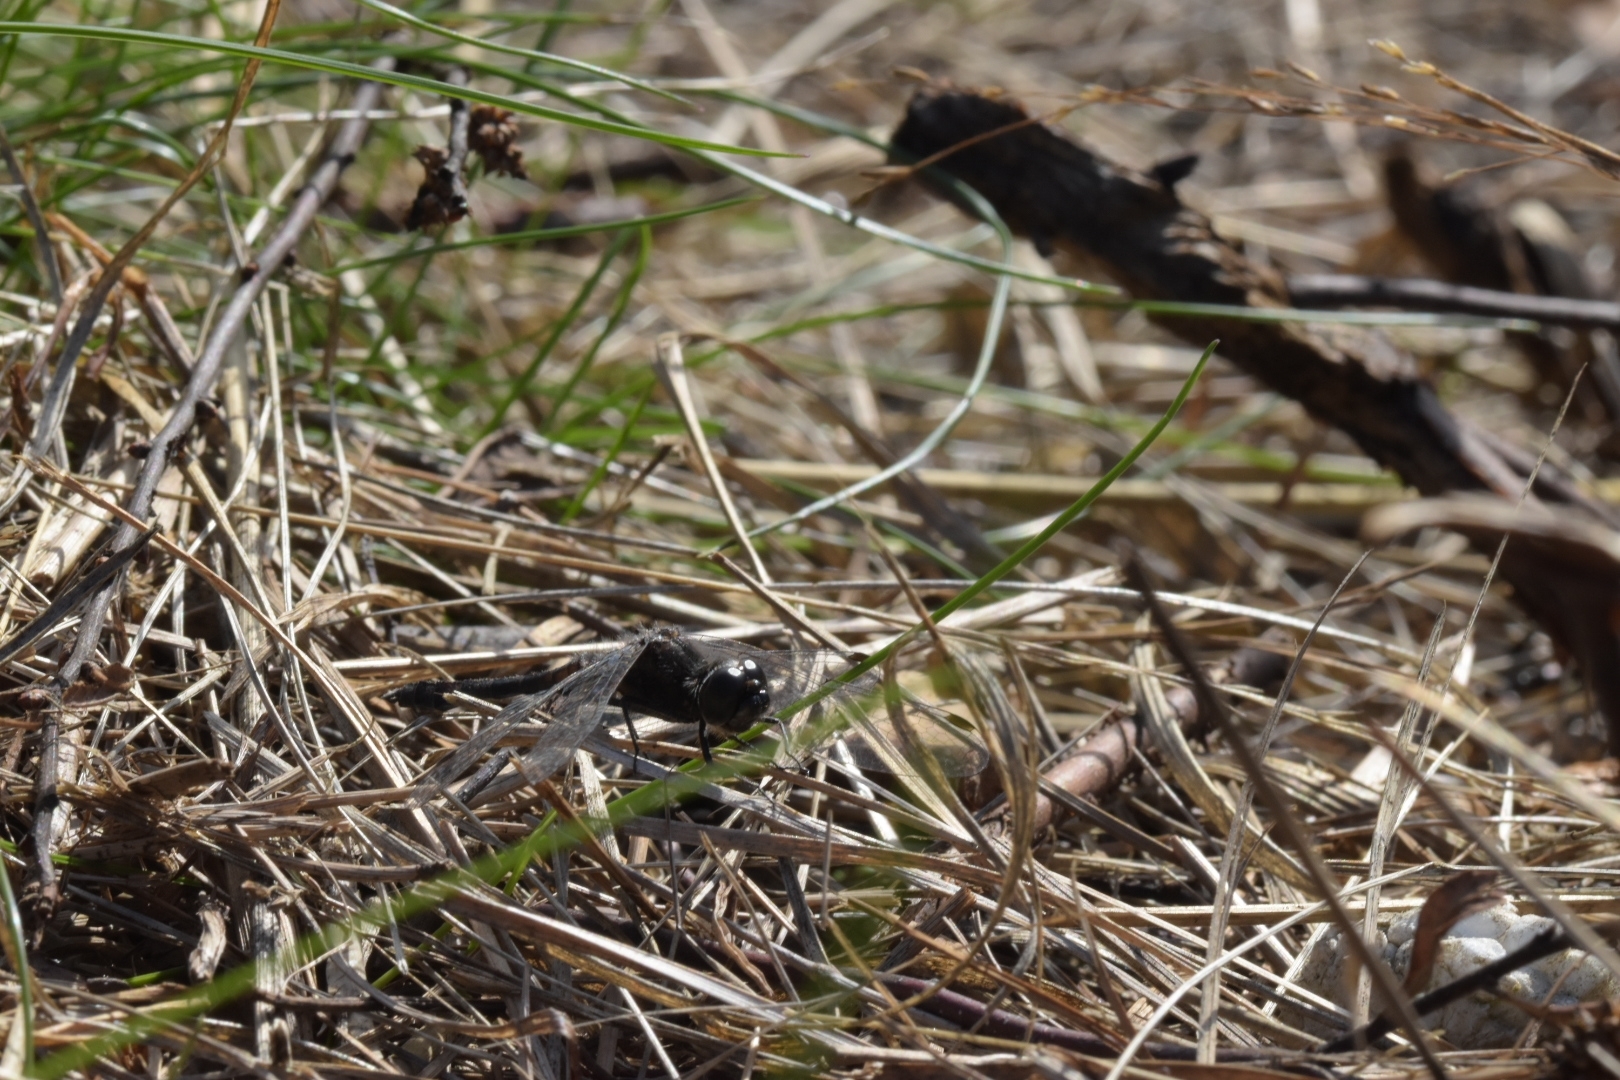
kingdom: Animalia
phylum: Arthropoda
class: Insecta
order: Odonata
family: Libellulidae
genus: Sympetrum
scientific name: Sympetrum danae
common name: Black darter
